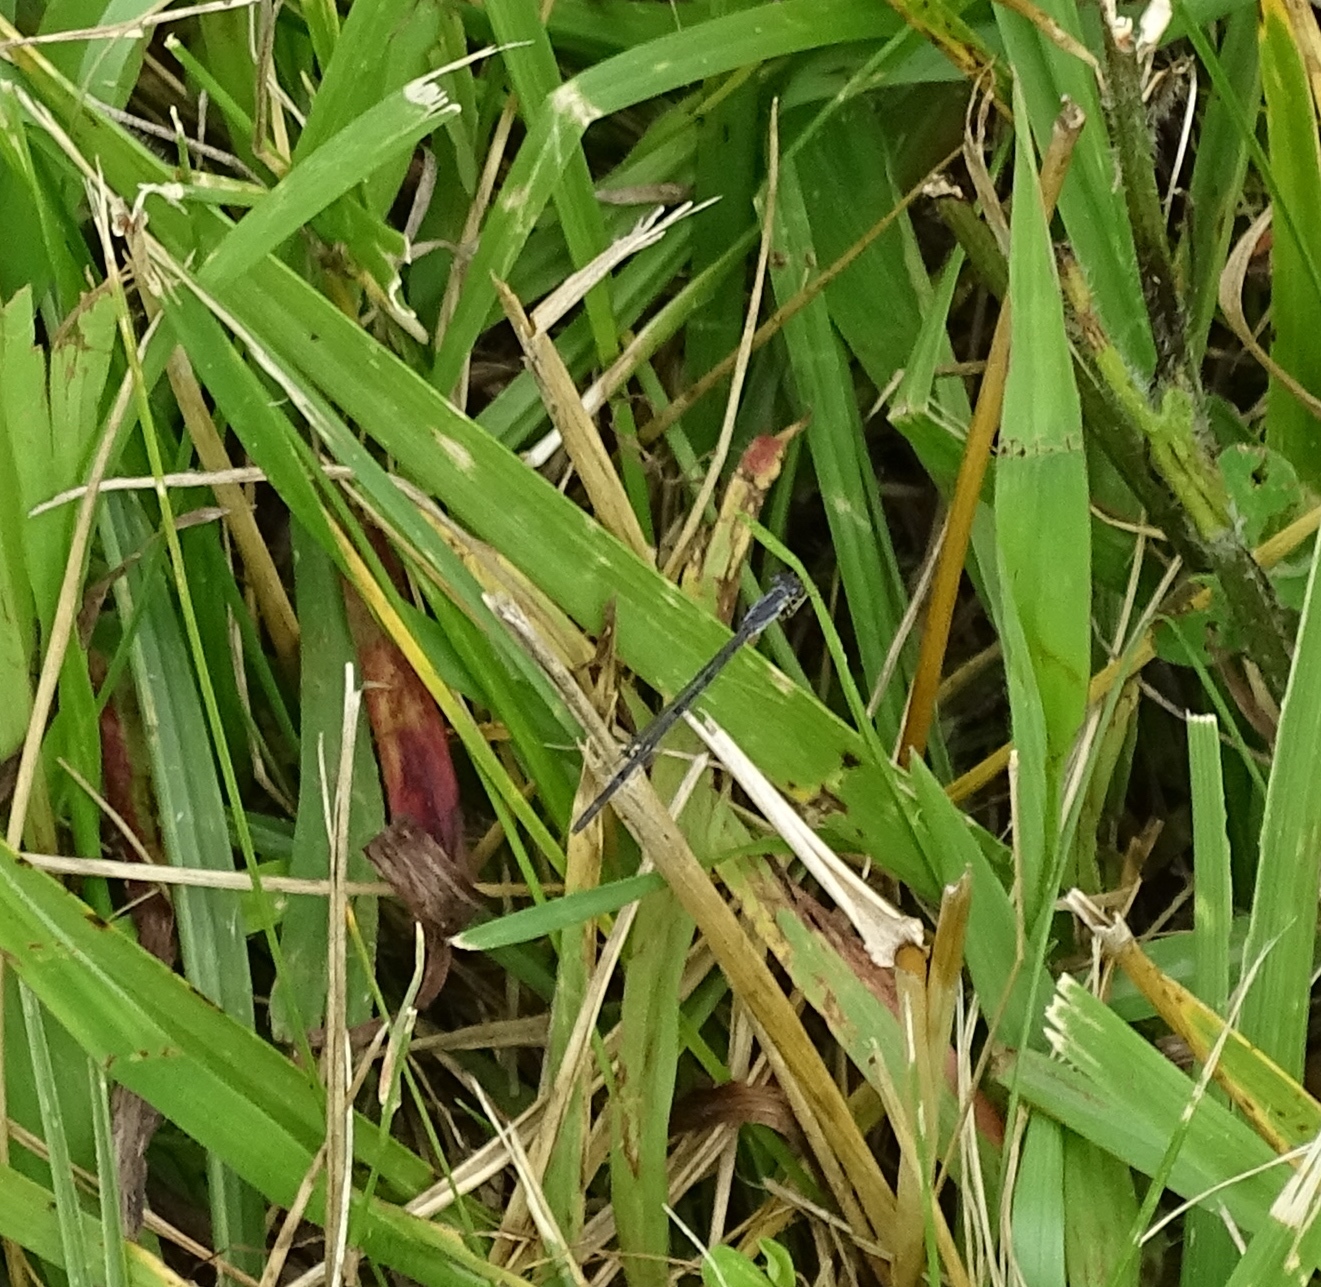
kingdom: Animalia
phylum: Arthropoda
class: Insecta
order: Odonata
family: Coenagrionidae
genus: Ischnura
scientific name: Ischnura
